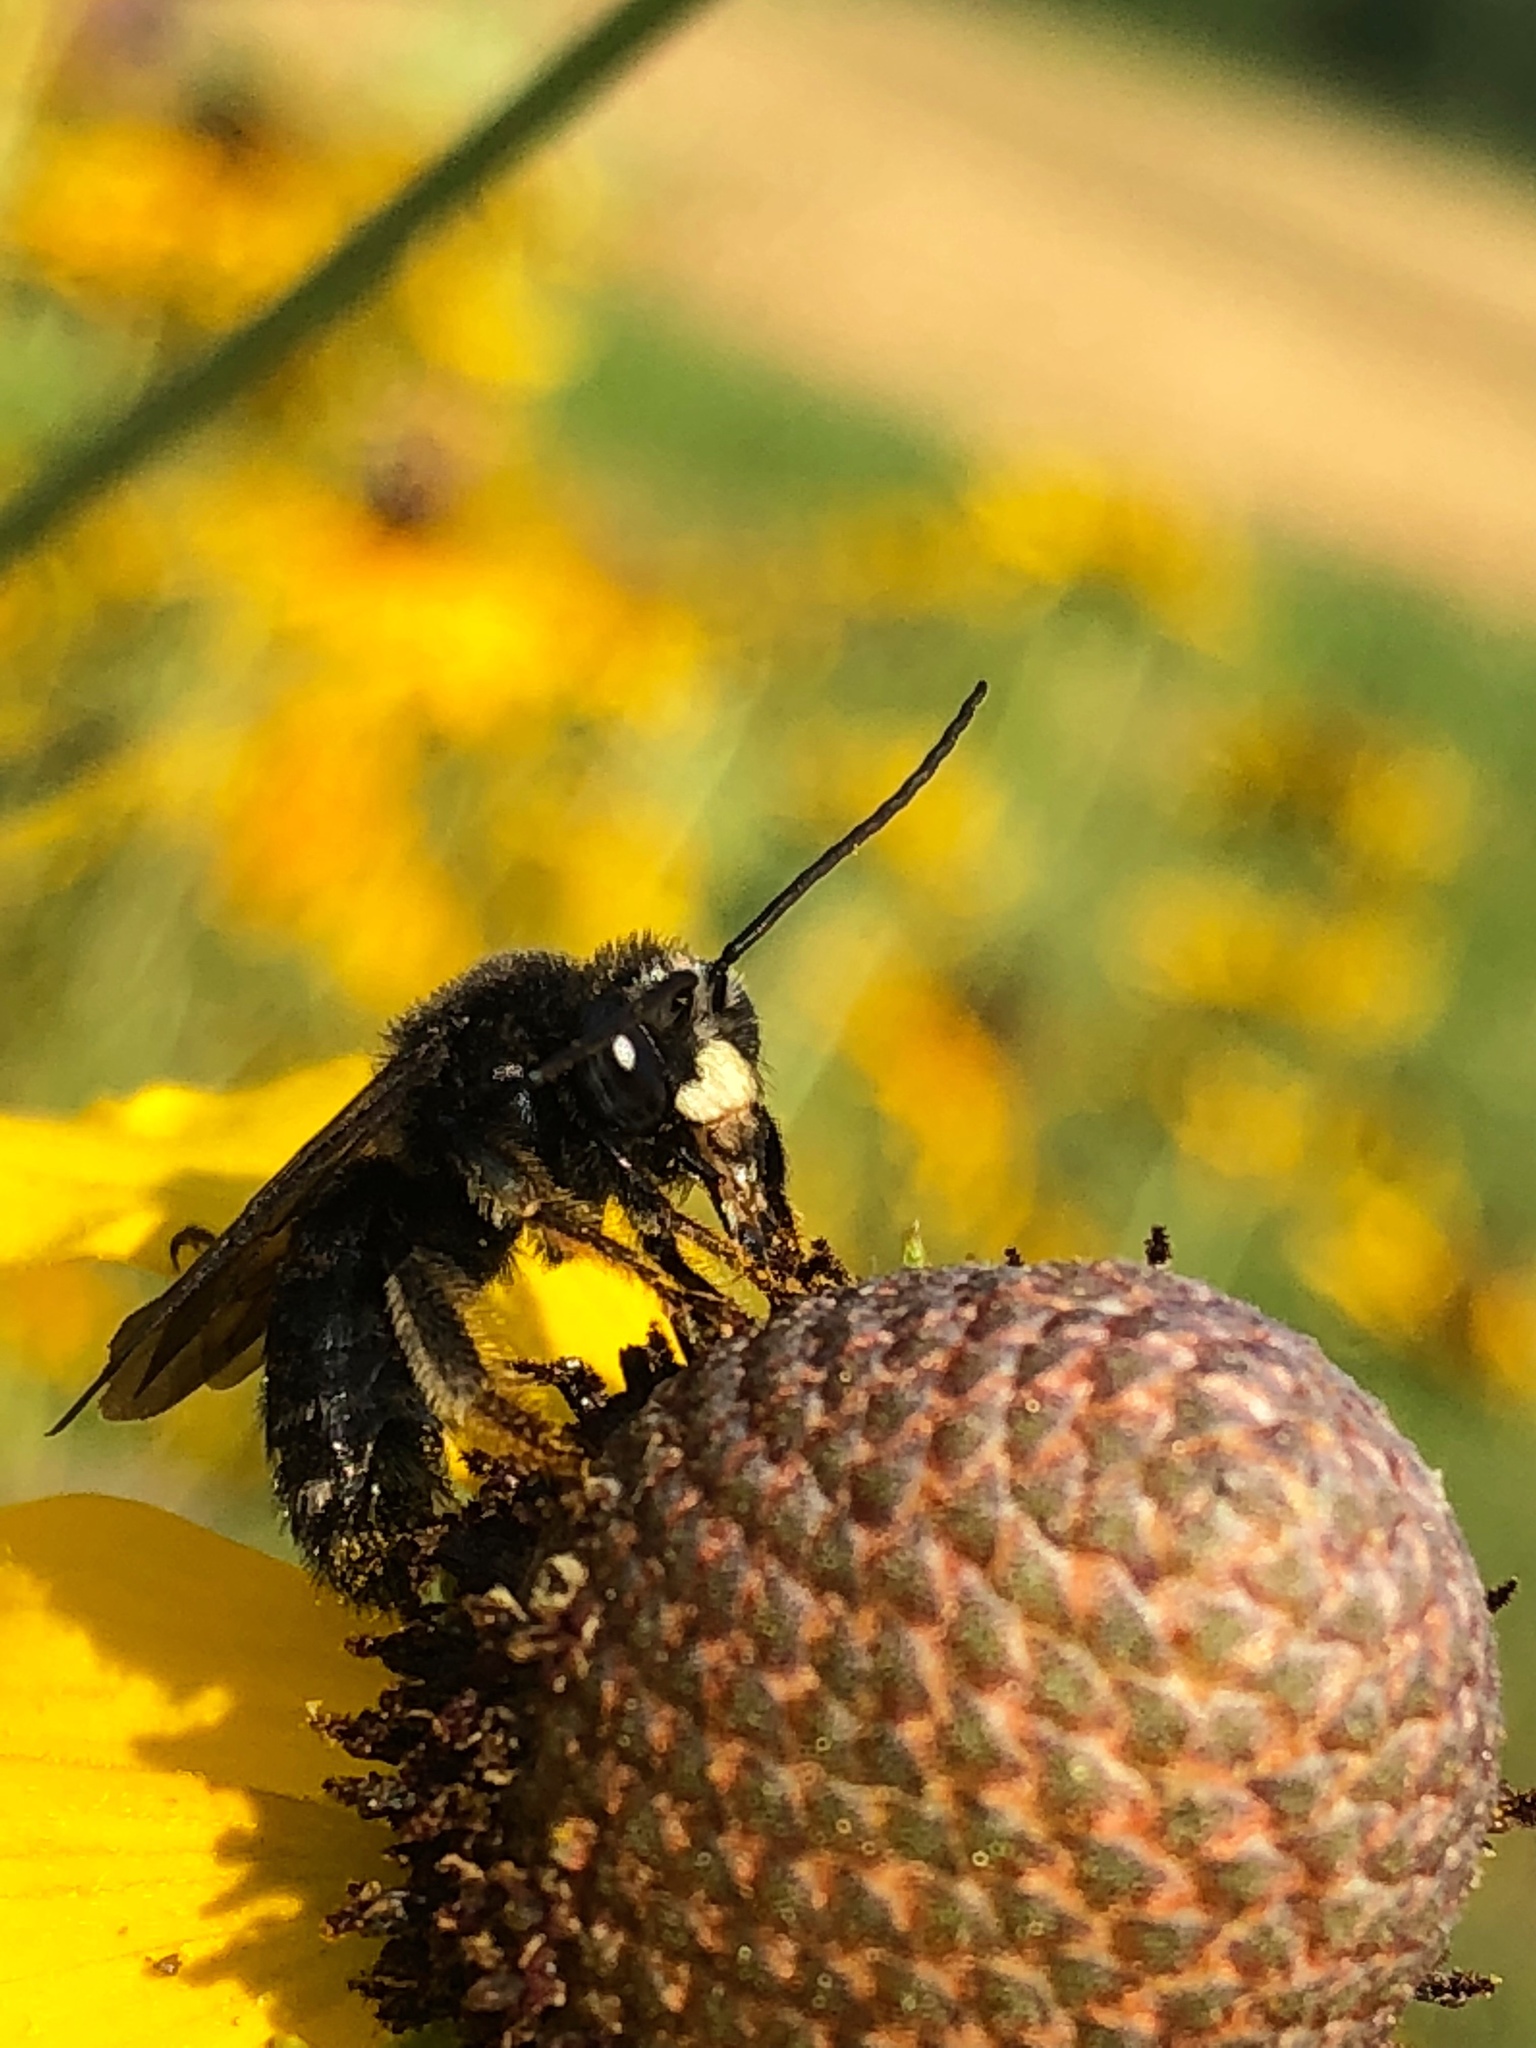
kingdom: Animalia
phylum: Arthropoda
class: Insecta
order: Hymenoptera
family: Apidae
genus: Melissodes
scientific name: Melissodes bimaculatus
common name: Two-spotted long-horned bee
